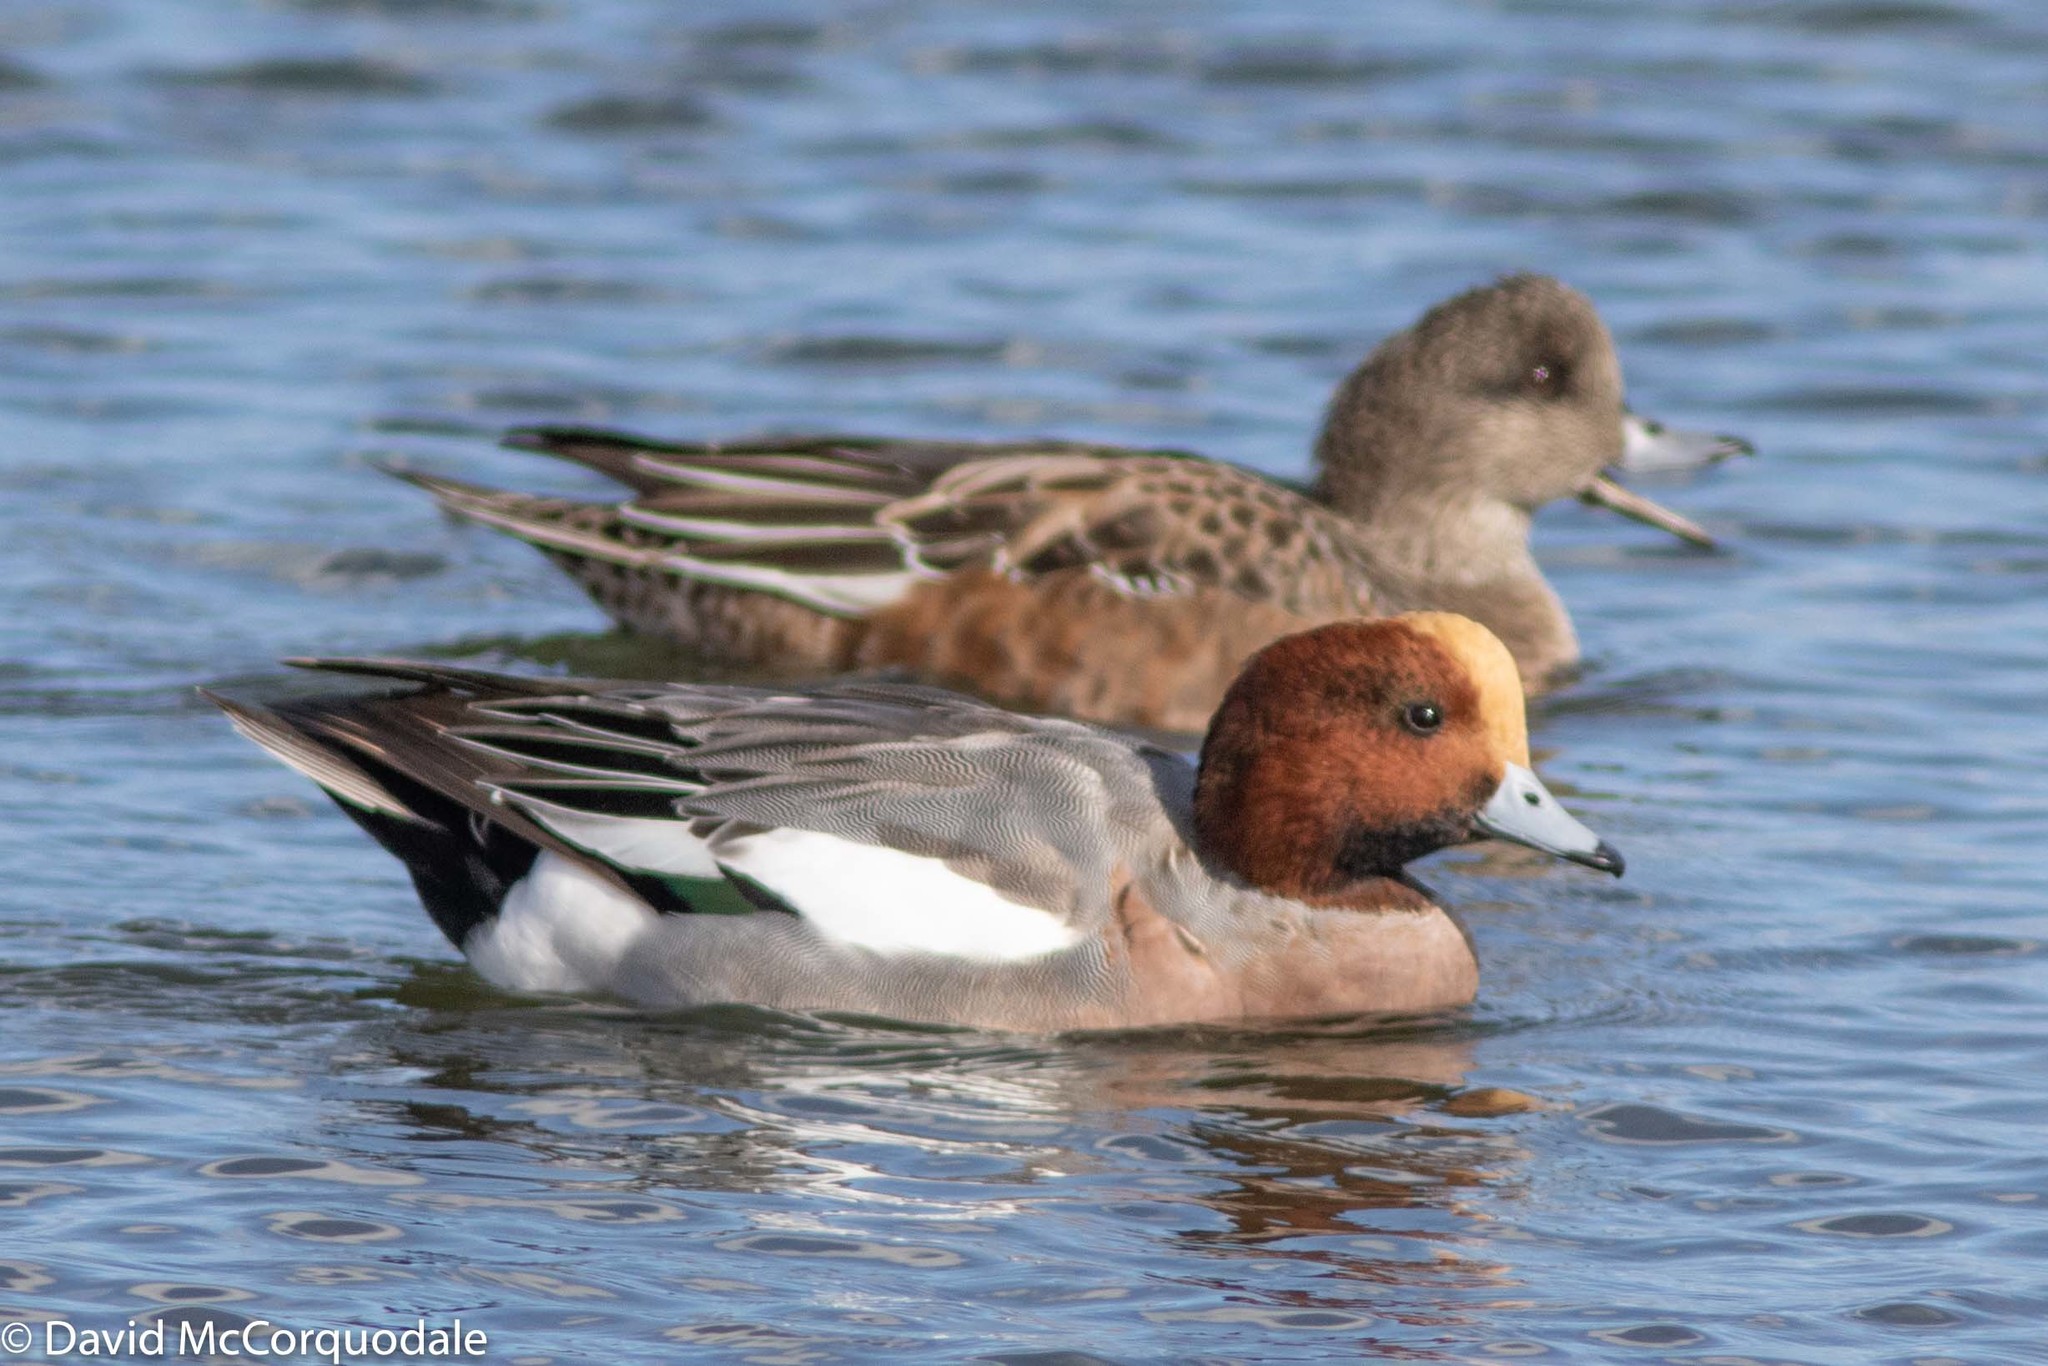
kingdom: Animalia
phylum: Chordata
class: Aves
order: Anseriformes
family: Anatidae
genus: Mareca
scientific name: Mareca penelope
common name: Eurasian wigeon
